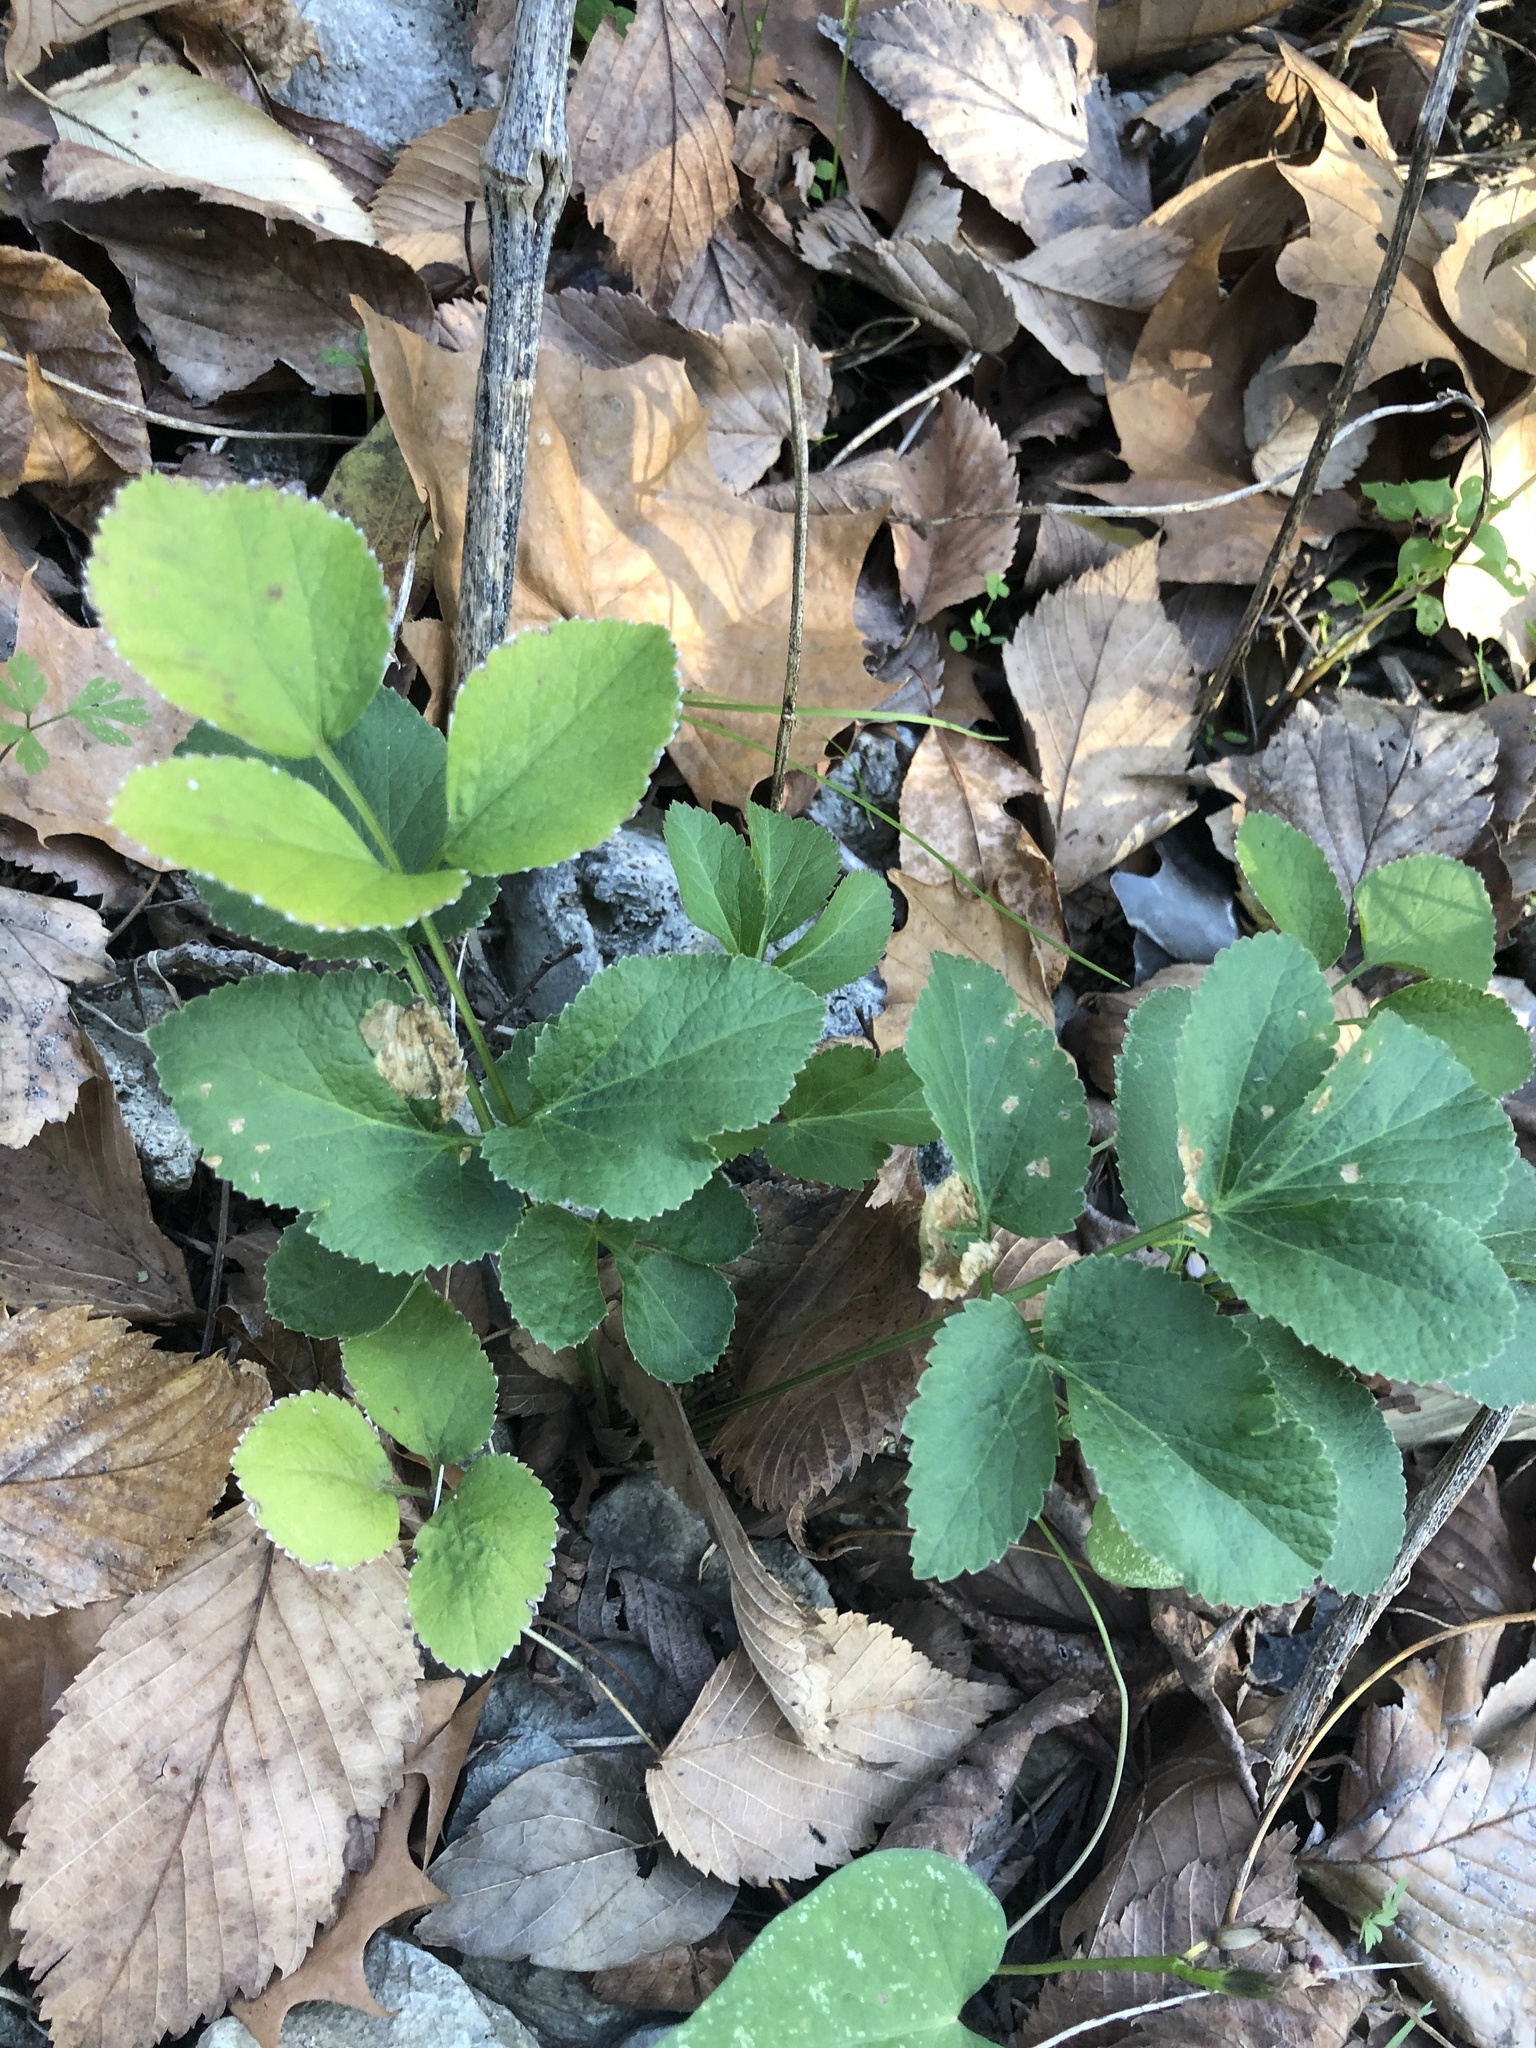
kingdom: Plantae
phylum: Tracheophyta
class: Magnoliopsida
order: Apiales
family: Apiaceae
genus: Zizia
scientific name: Zizia aurea
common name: Golden alexanders
